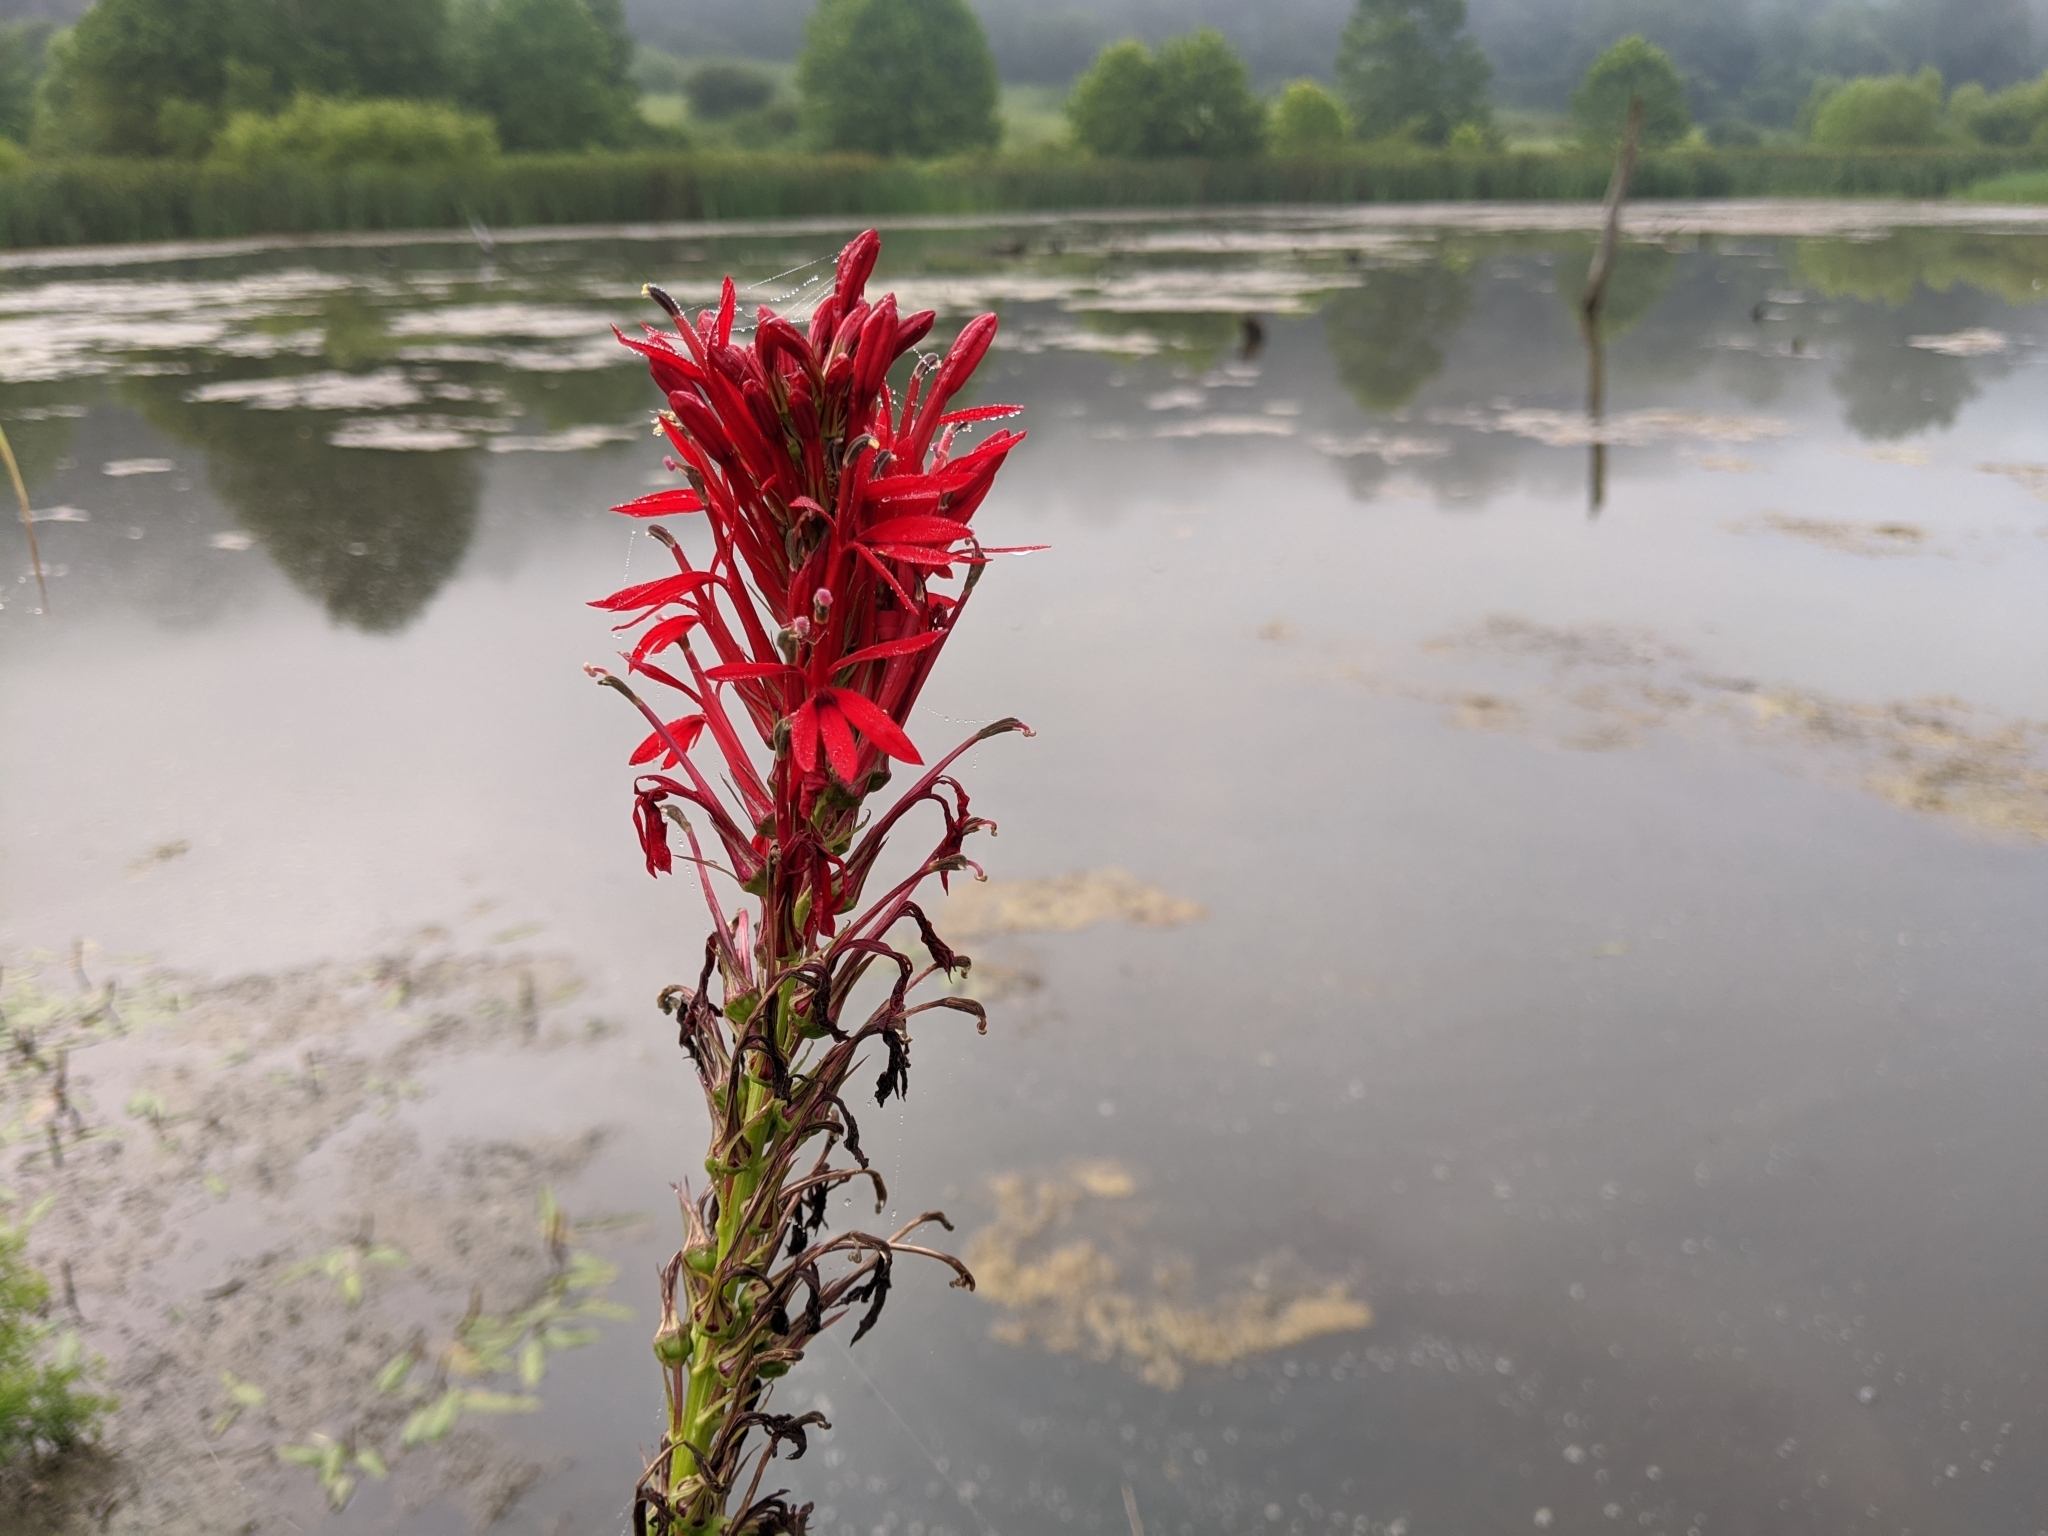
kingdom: Plantae
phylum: Tracheophyta
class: Magnoliopsida
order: Asterales
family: Campanulaceae
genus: Lobelia
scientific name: Lobelia cardinalis
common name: Cardinal flower
